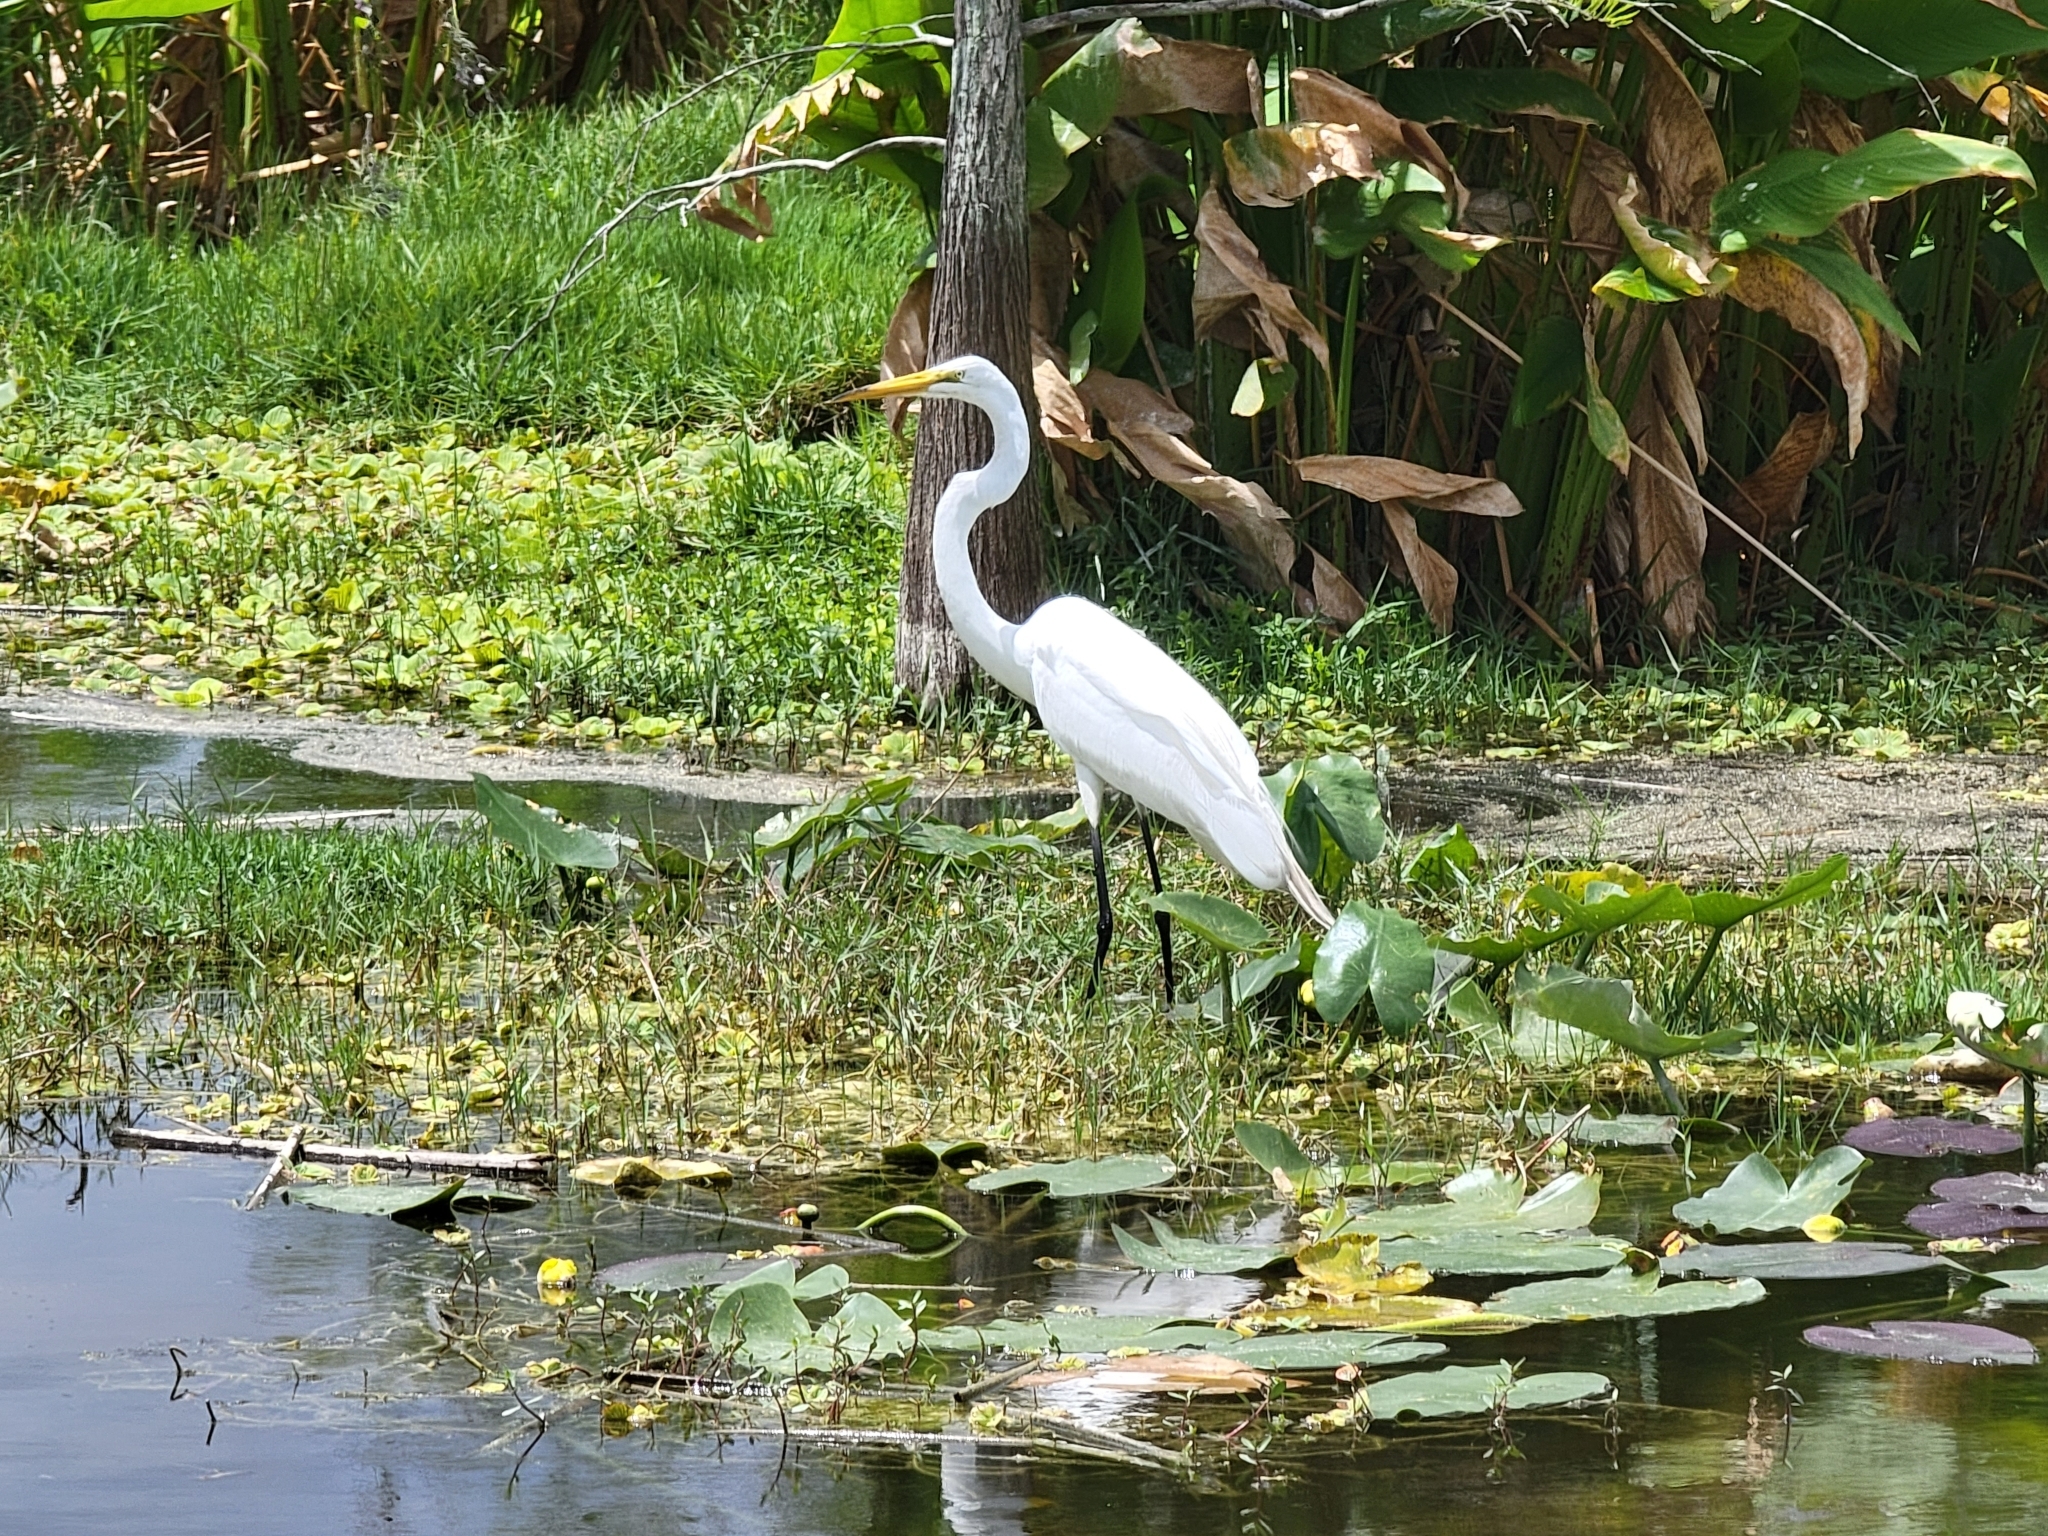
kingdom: Animalia
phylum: Chordata
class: Aves
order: Pelecaniformes
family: Ardeidae
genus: Ardea
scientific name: Ardea alba
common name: Great egret
